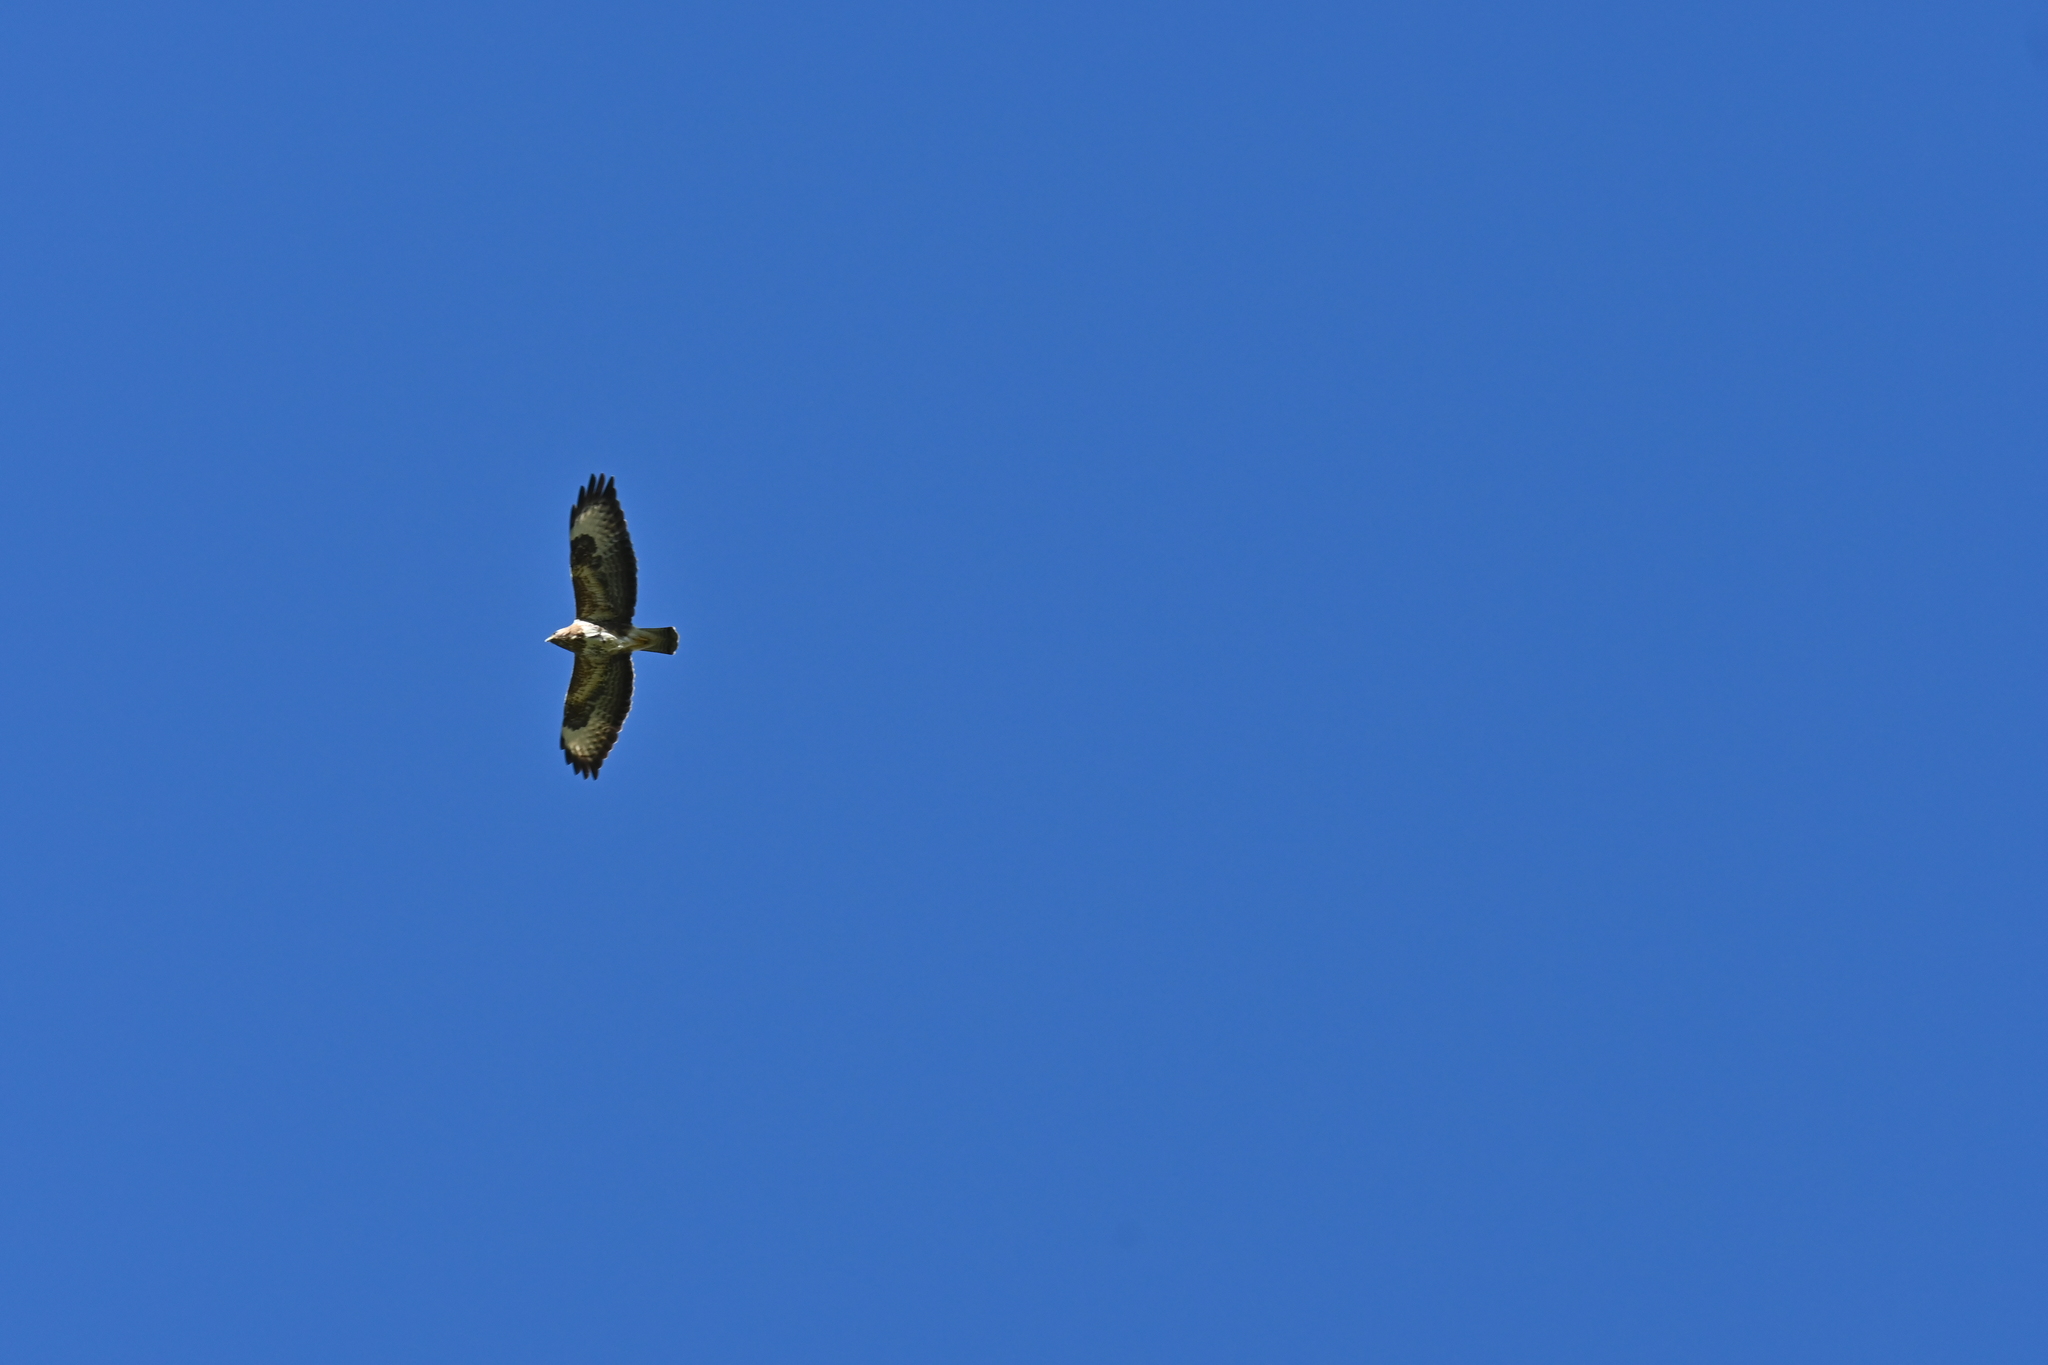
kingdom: Animalia
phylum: Chordata
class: Aves
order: Accipitriformes
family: Accipitridae
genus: Buteo
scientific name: Buteo buteo
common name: Common buzzard
